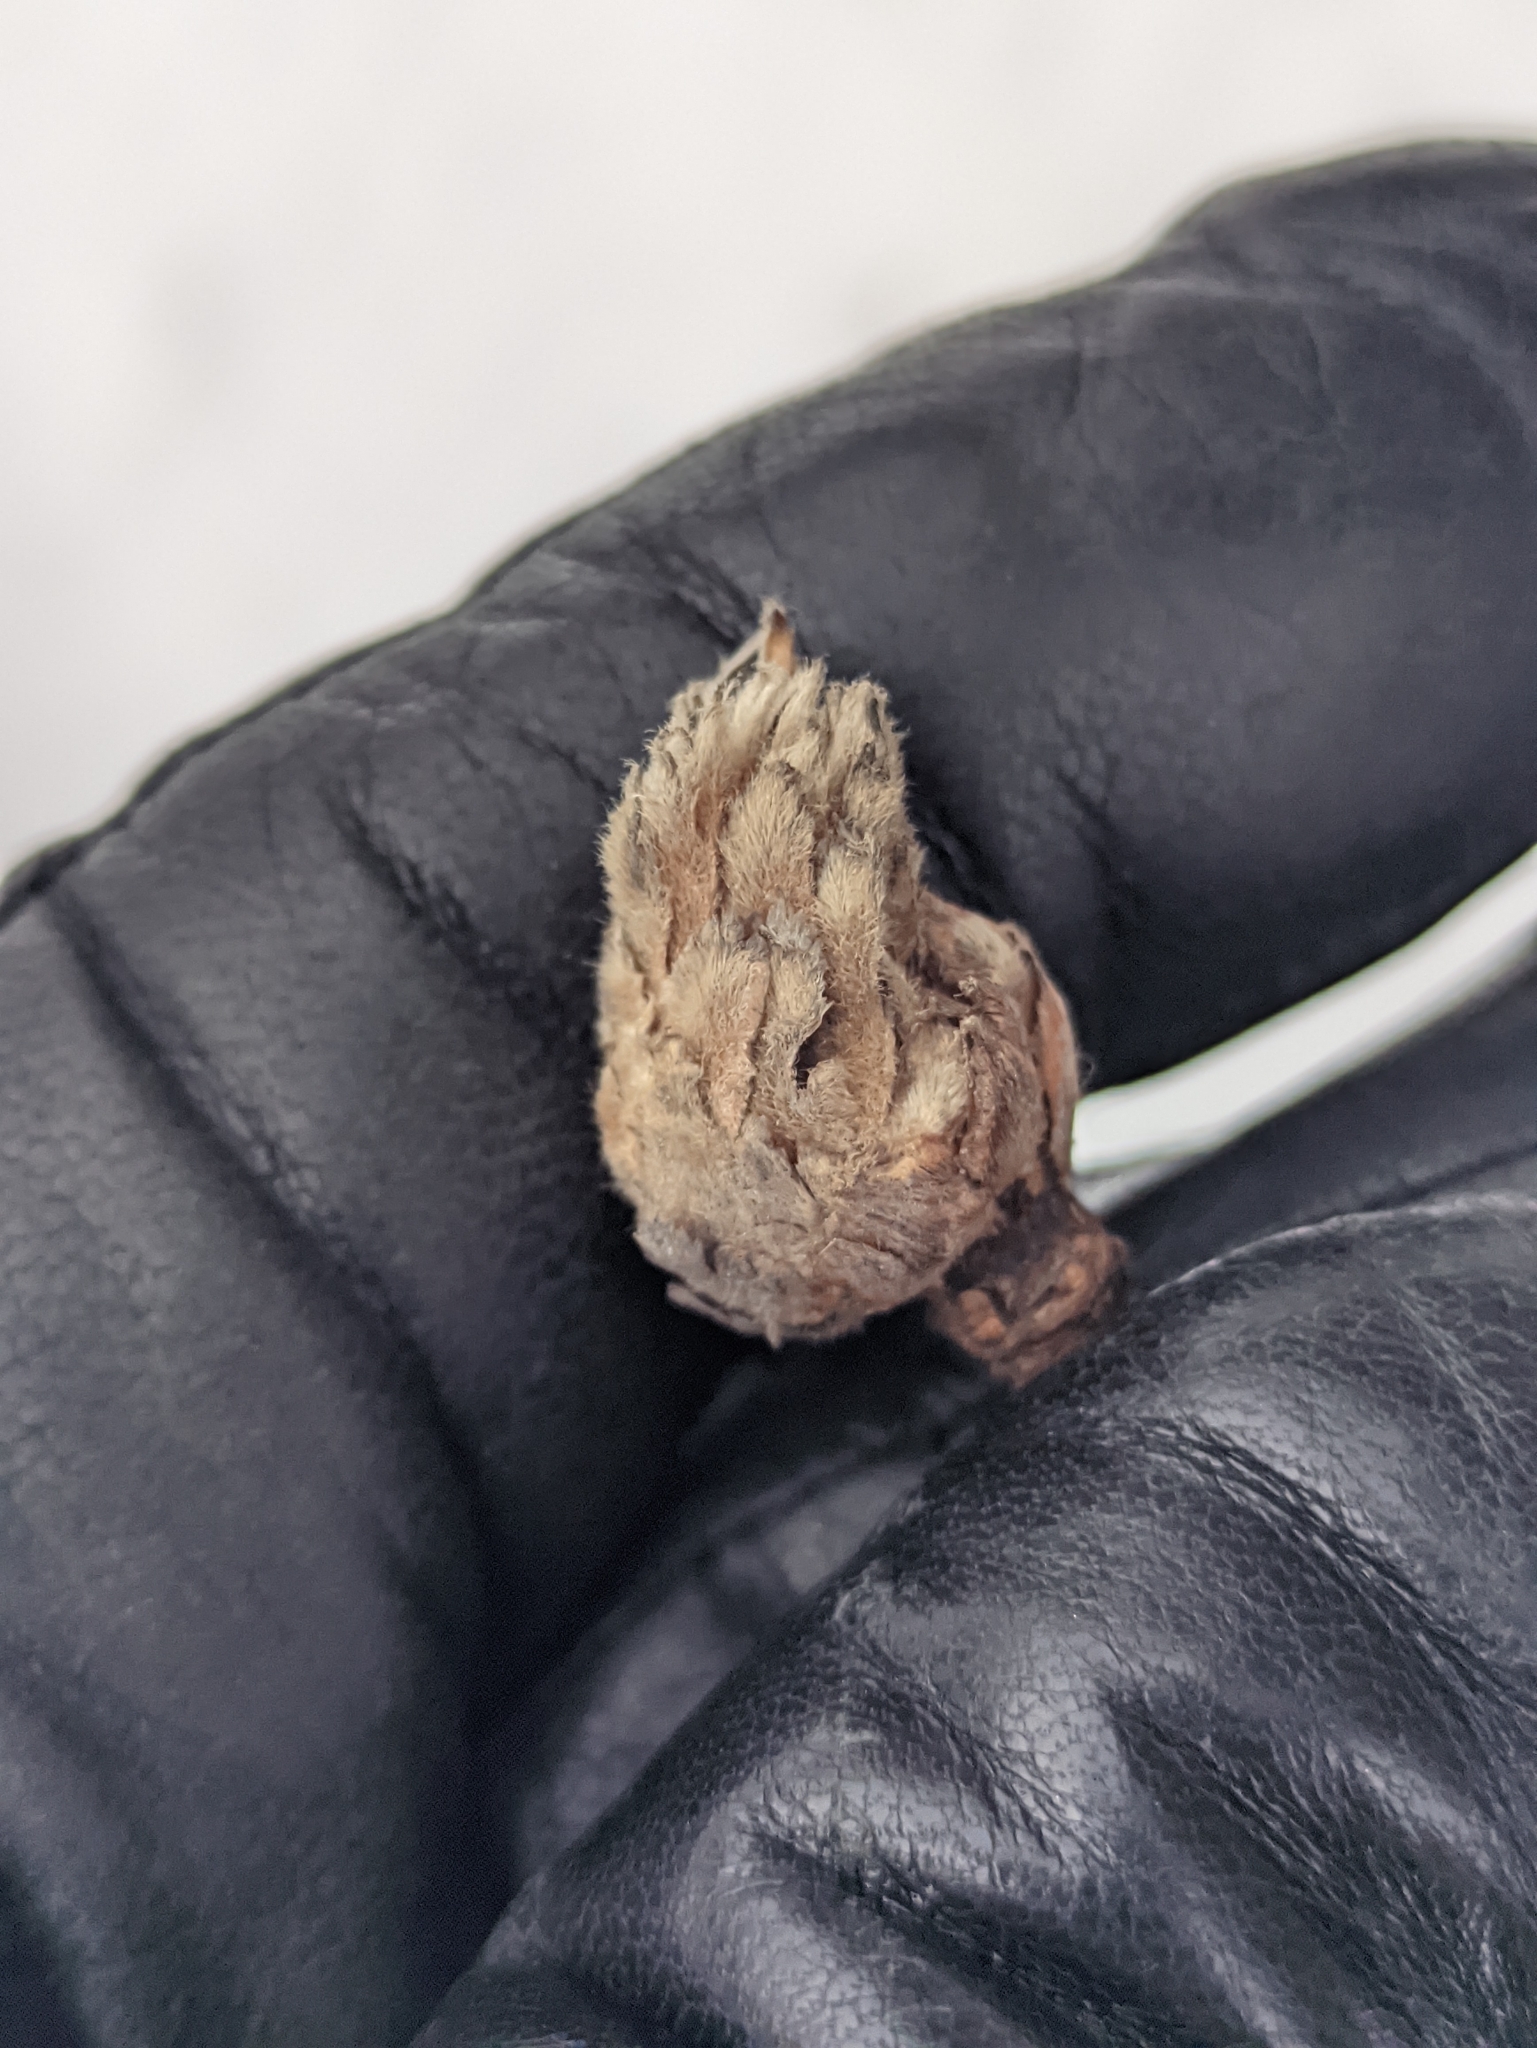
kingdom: Animalia
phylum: Arthropoda
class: Insecta
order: Hymenoptera
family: Cynipidae
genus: Andricus
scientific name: Andricus foecundatrix
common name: Artichoke gall
